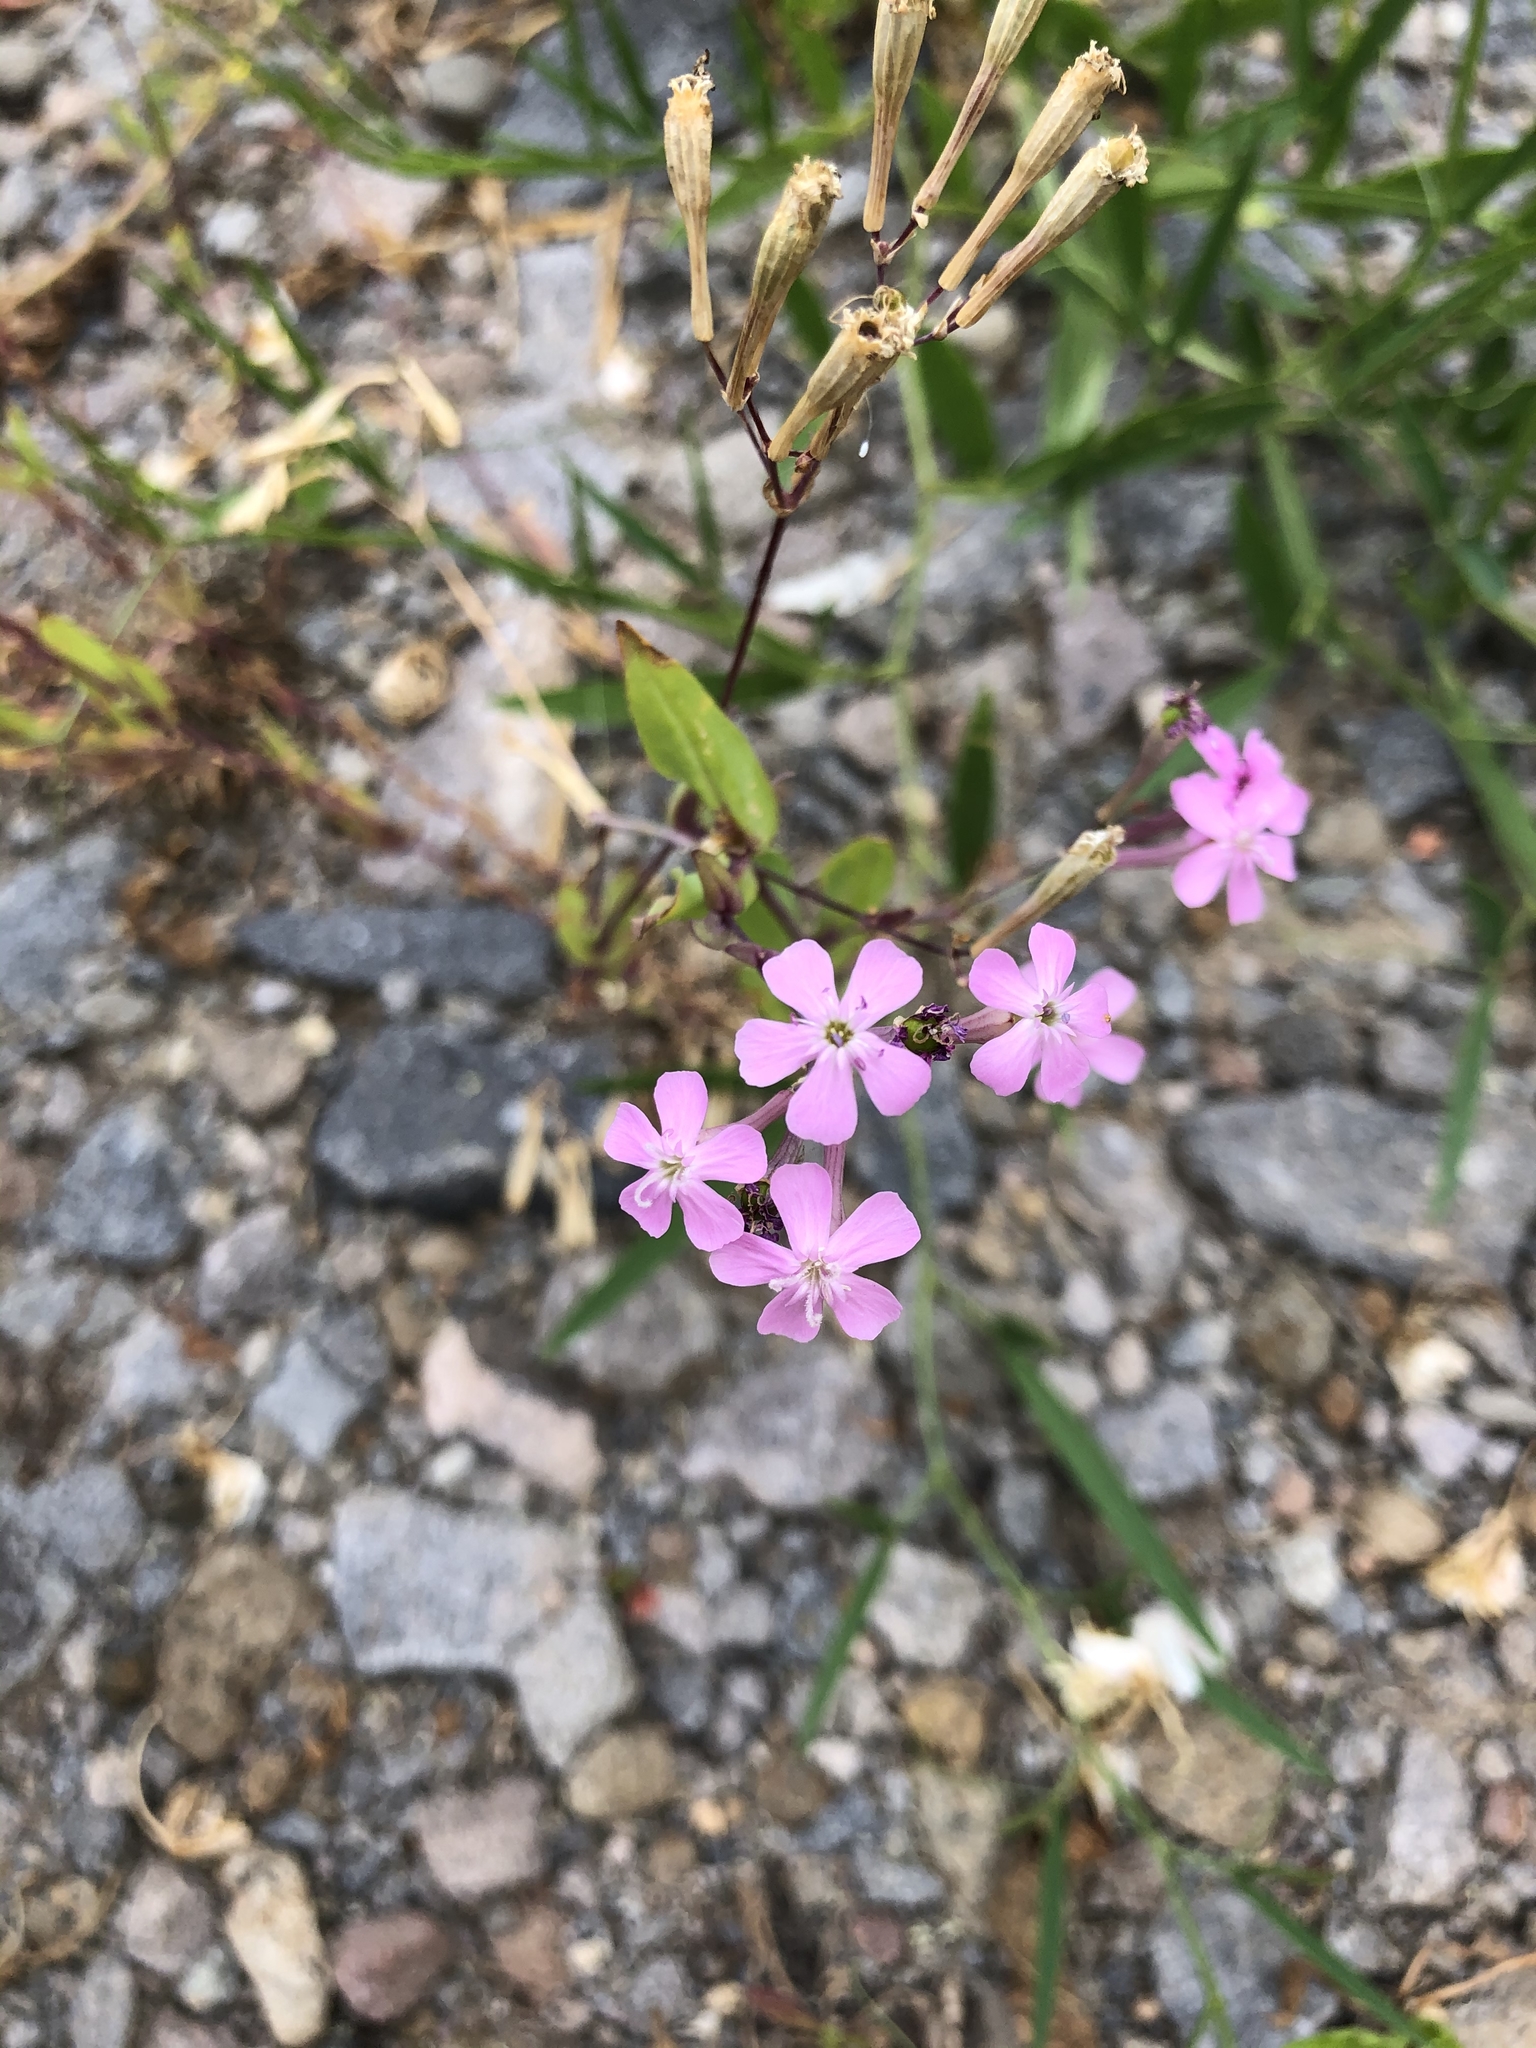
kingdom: Plantae
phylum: Tracheophyta
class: Magnoliopsida
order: Caryophyllales
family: Caryophyllaceae
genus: Atocion
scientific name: Atocion armeria
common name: Sweet william catchfly
